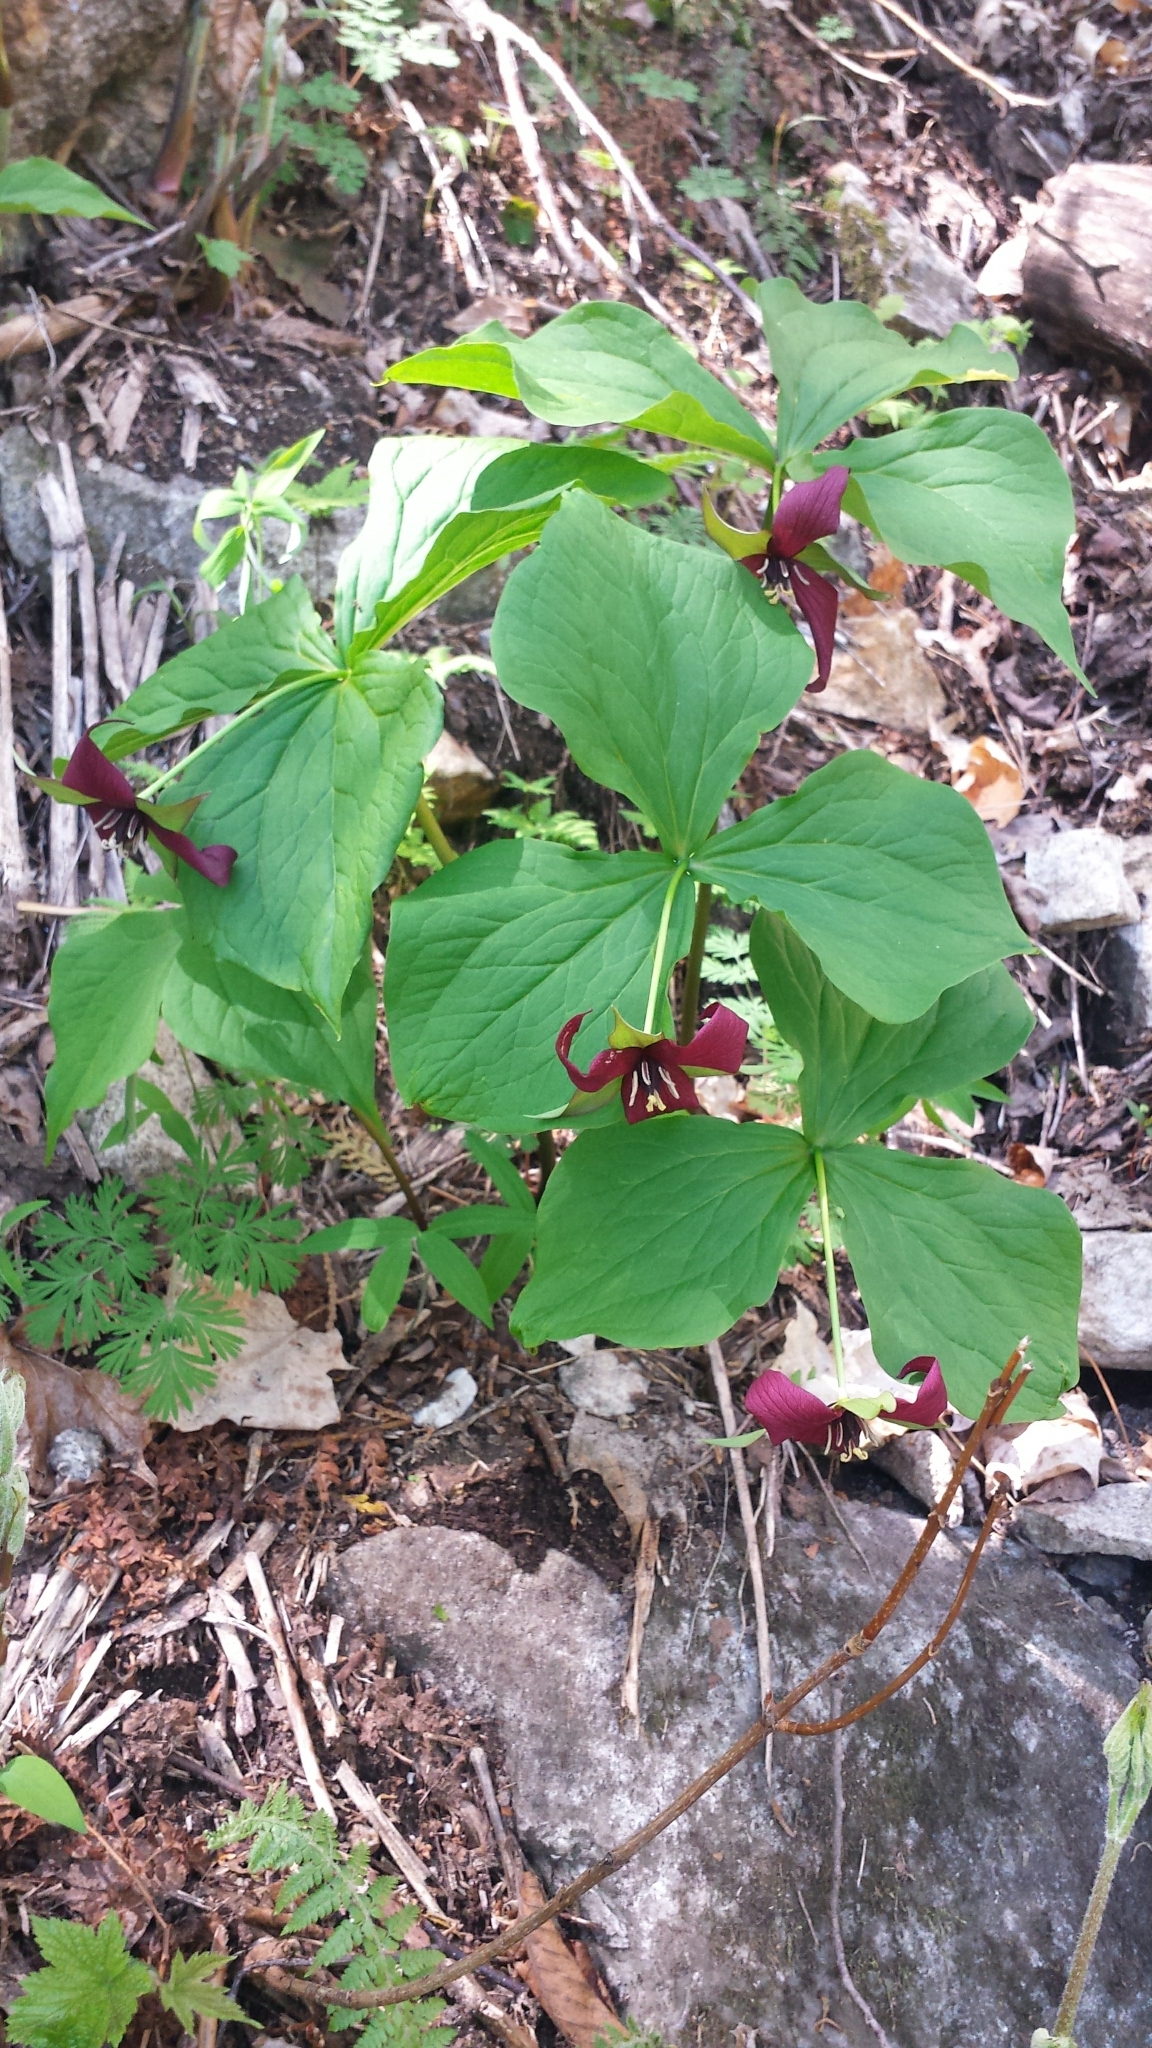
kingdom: Plantae
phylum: Tracheophyta
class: Liliopsida
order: Liliales
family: Melanthiaceae
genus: Trillium
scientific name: Trillium erectum
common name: Purple trillium
